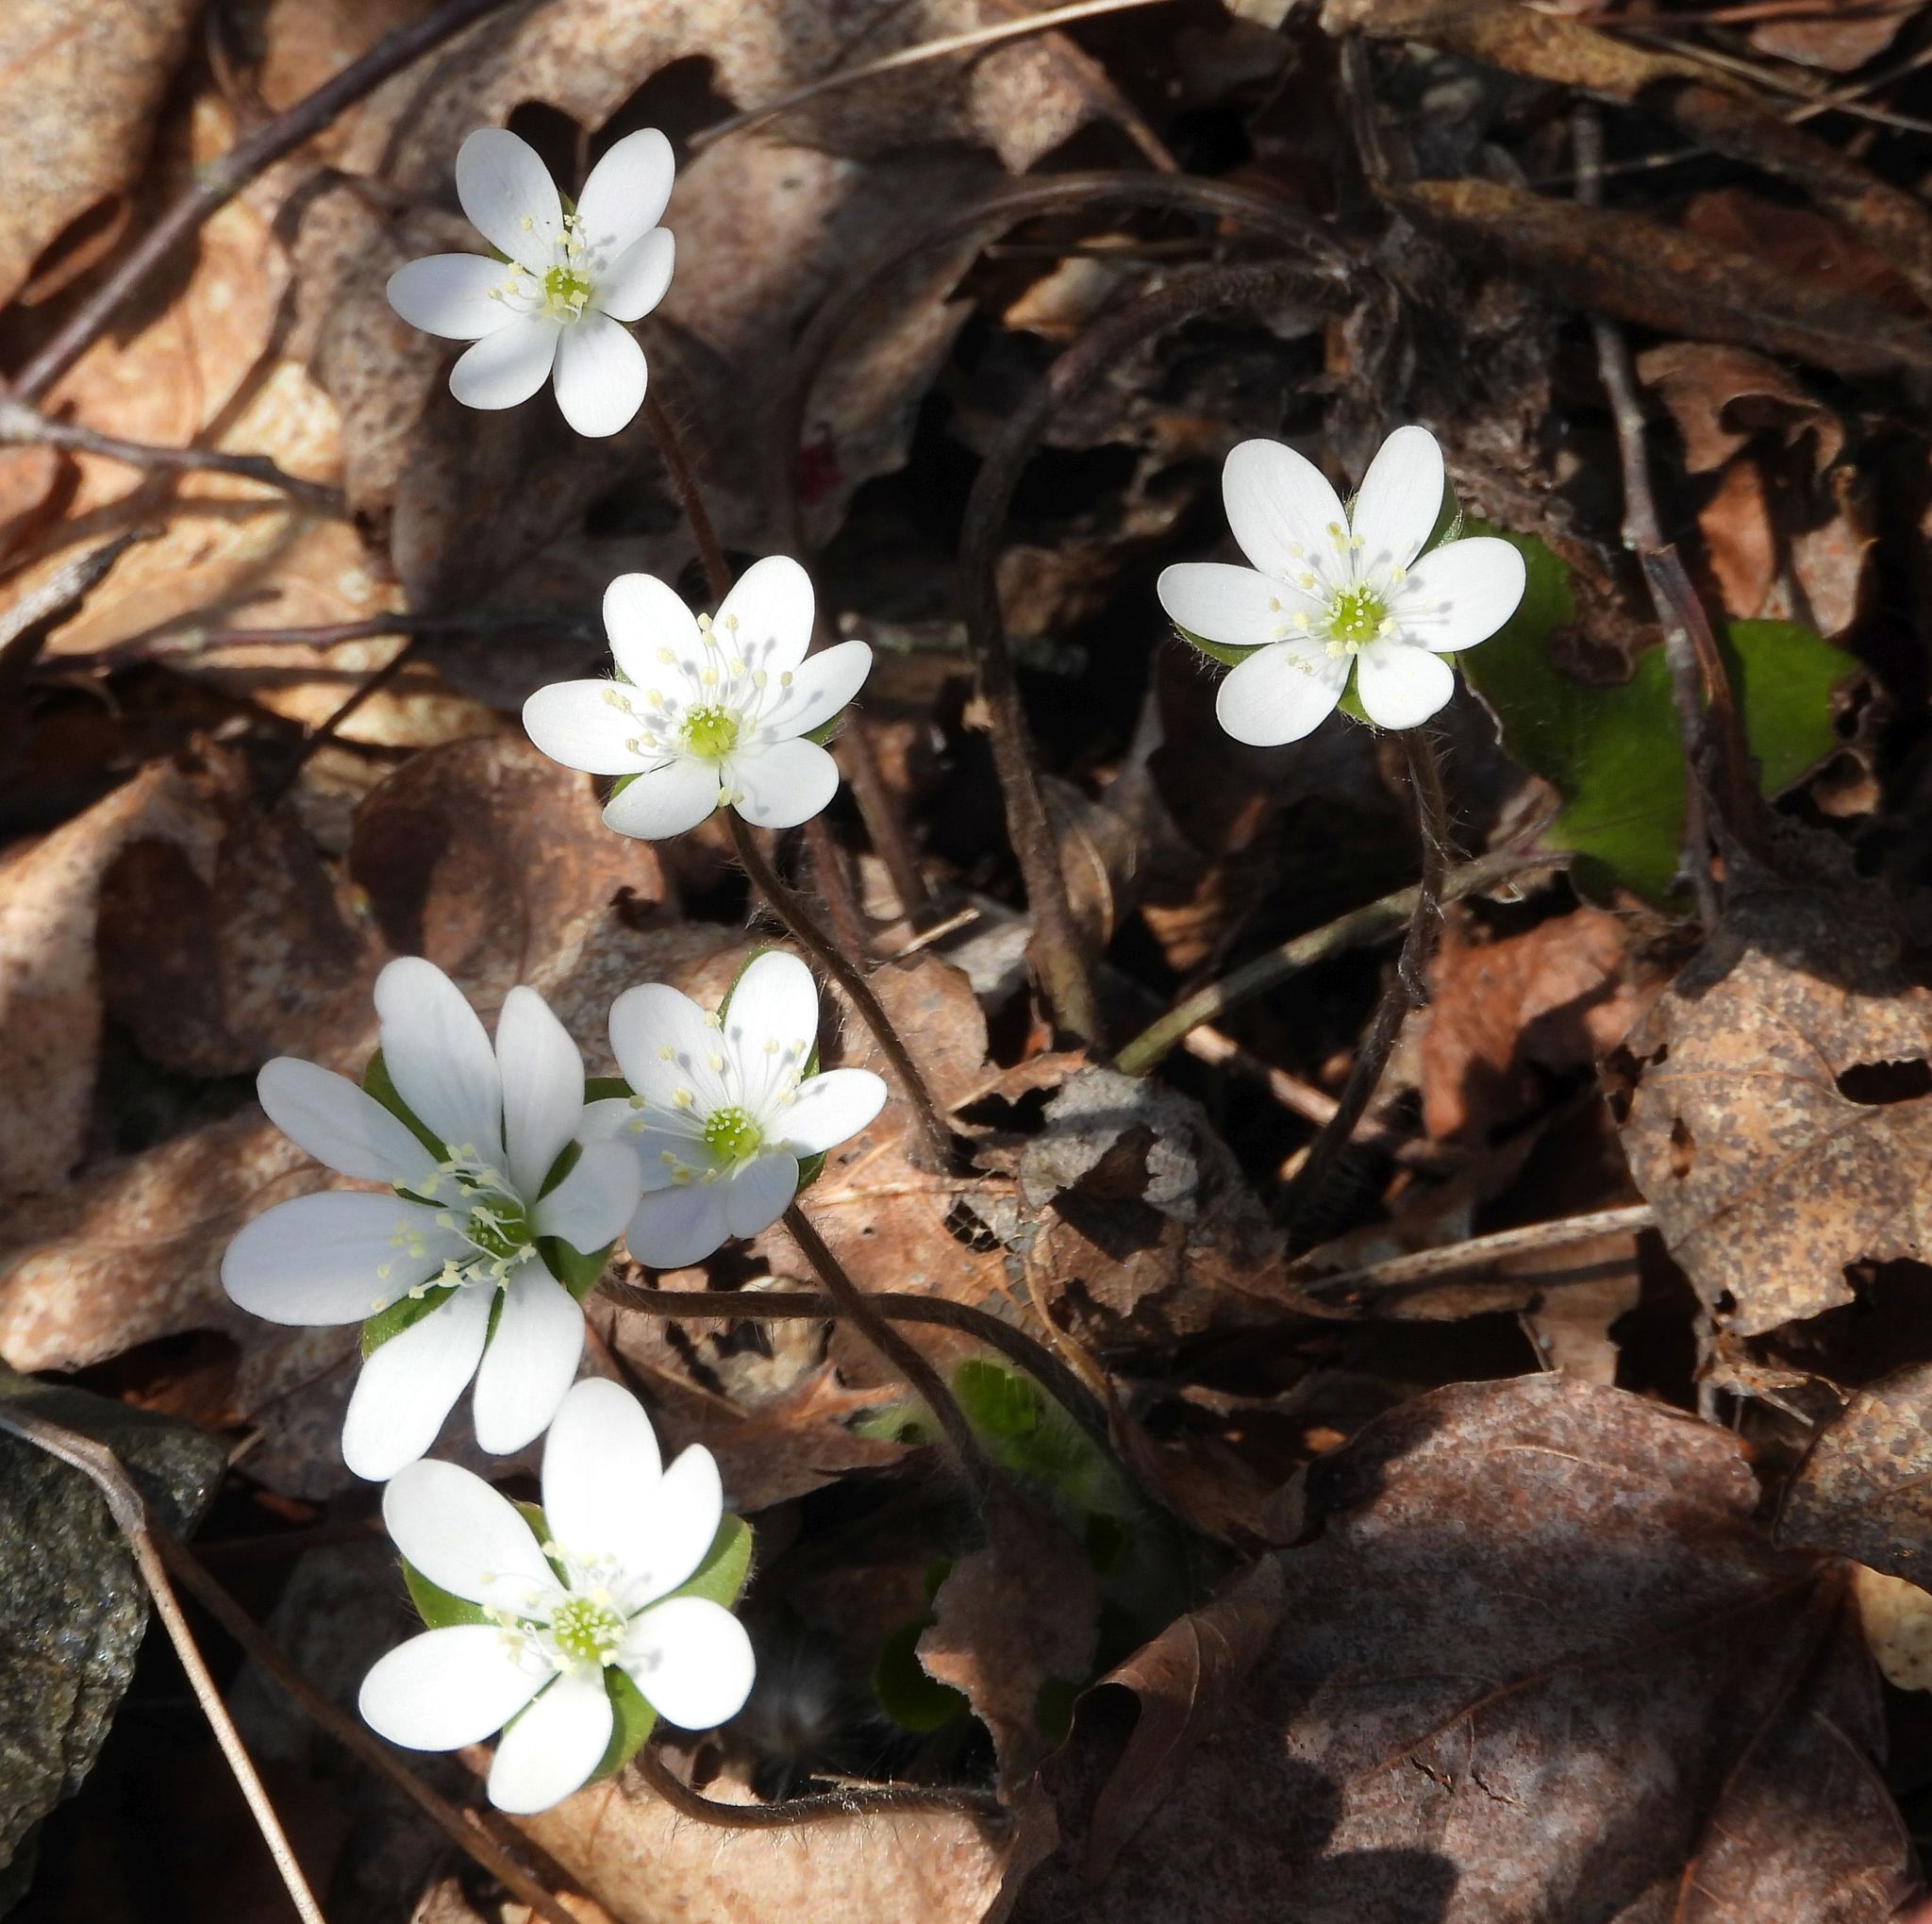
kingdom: Plantae
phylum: Tracheophyta
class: Magnoliopsida
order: Ranunculales
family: Ranunculaceae
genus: Hepatica
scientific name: Hepatica americana
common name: American hepatica
